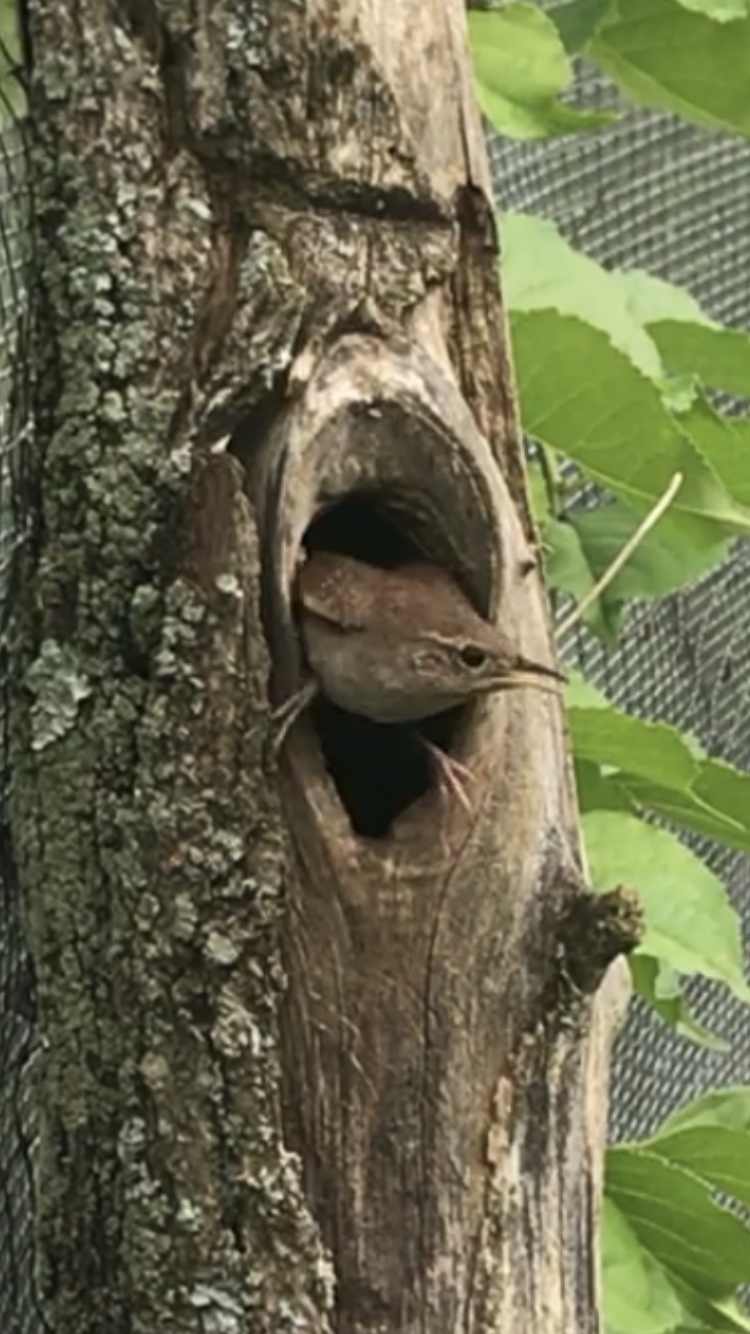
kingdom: Animalia
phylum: Chordata
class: Aves
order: Passeriformes
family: Troglodytidae
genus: Troglodytes
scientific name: Troglodytes aedon
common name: House wren
